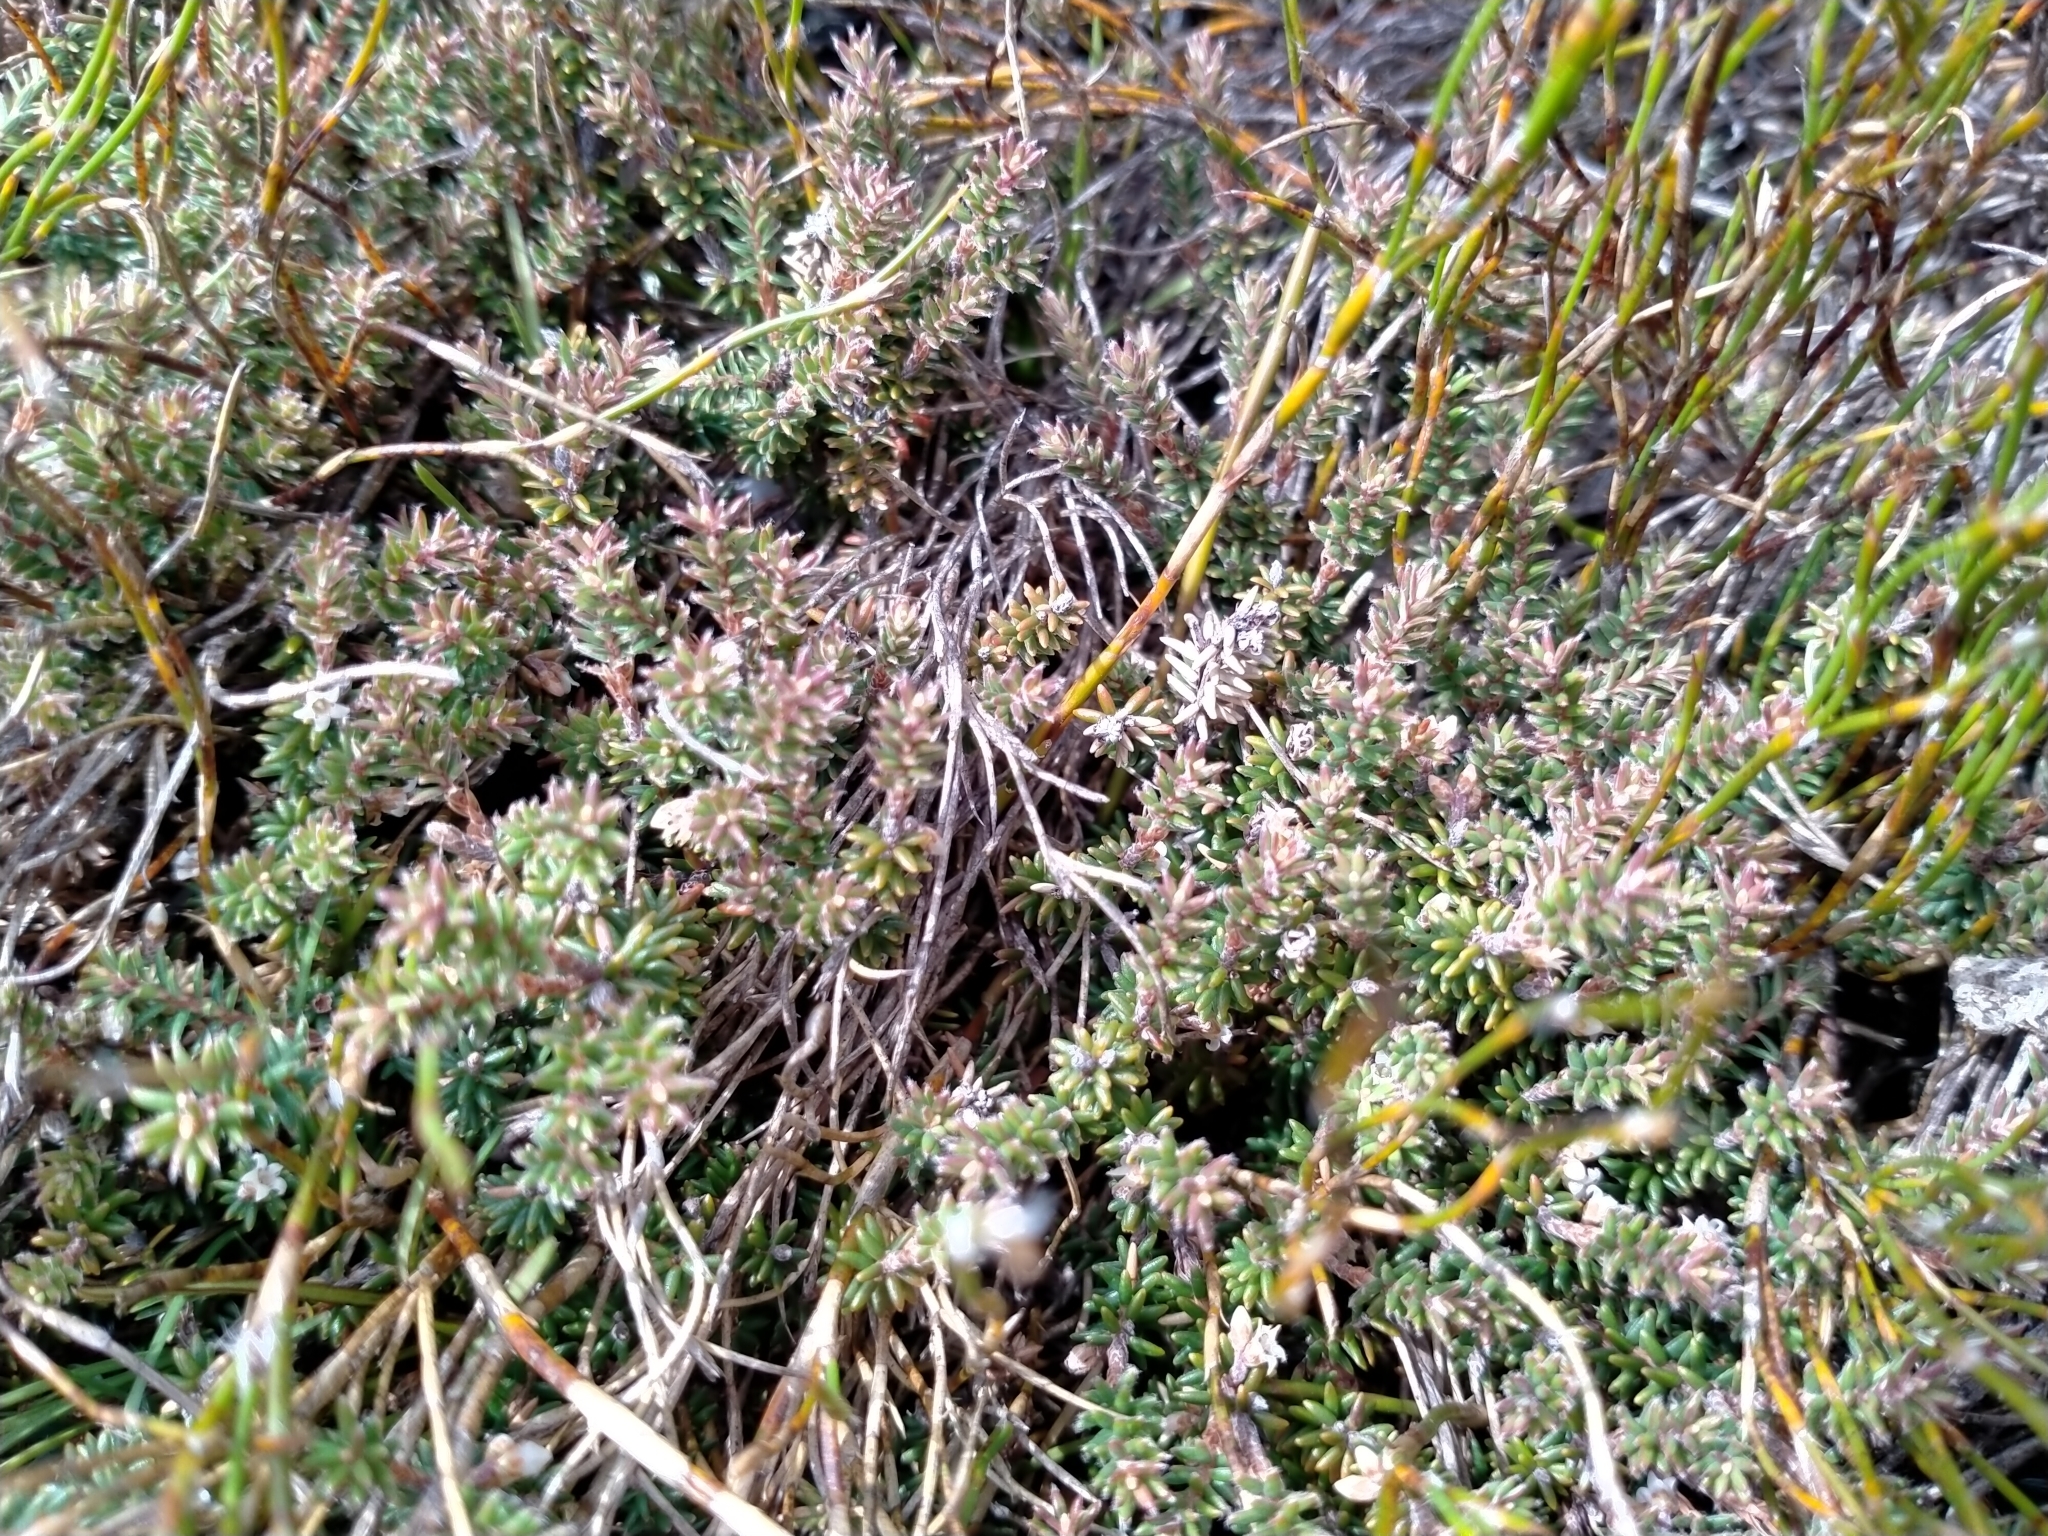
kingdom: Plantae
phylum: Tracheophyta
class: Magnoliopsida
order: Ericales
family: Ericaceae
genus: Androstoma
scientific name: Androstoma empetrifolia
